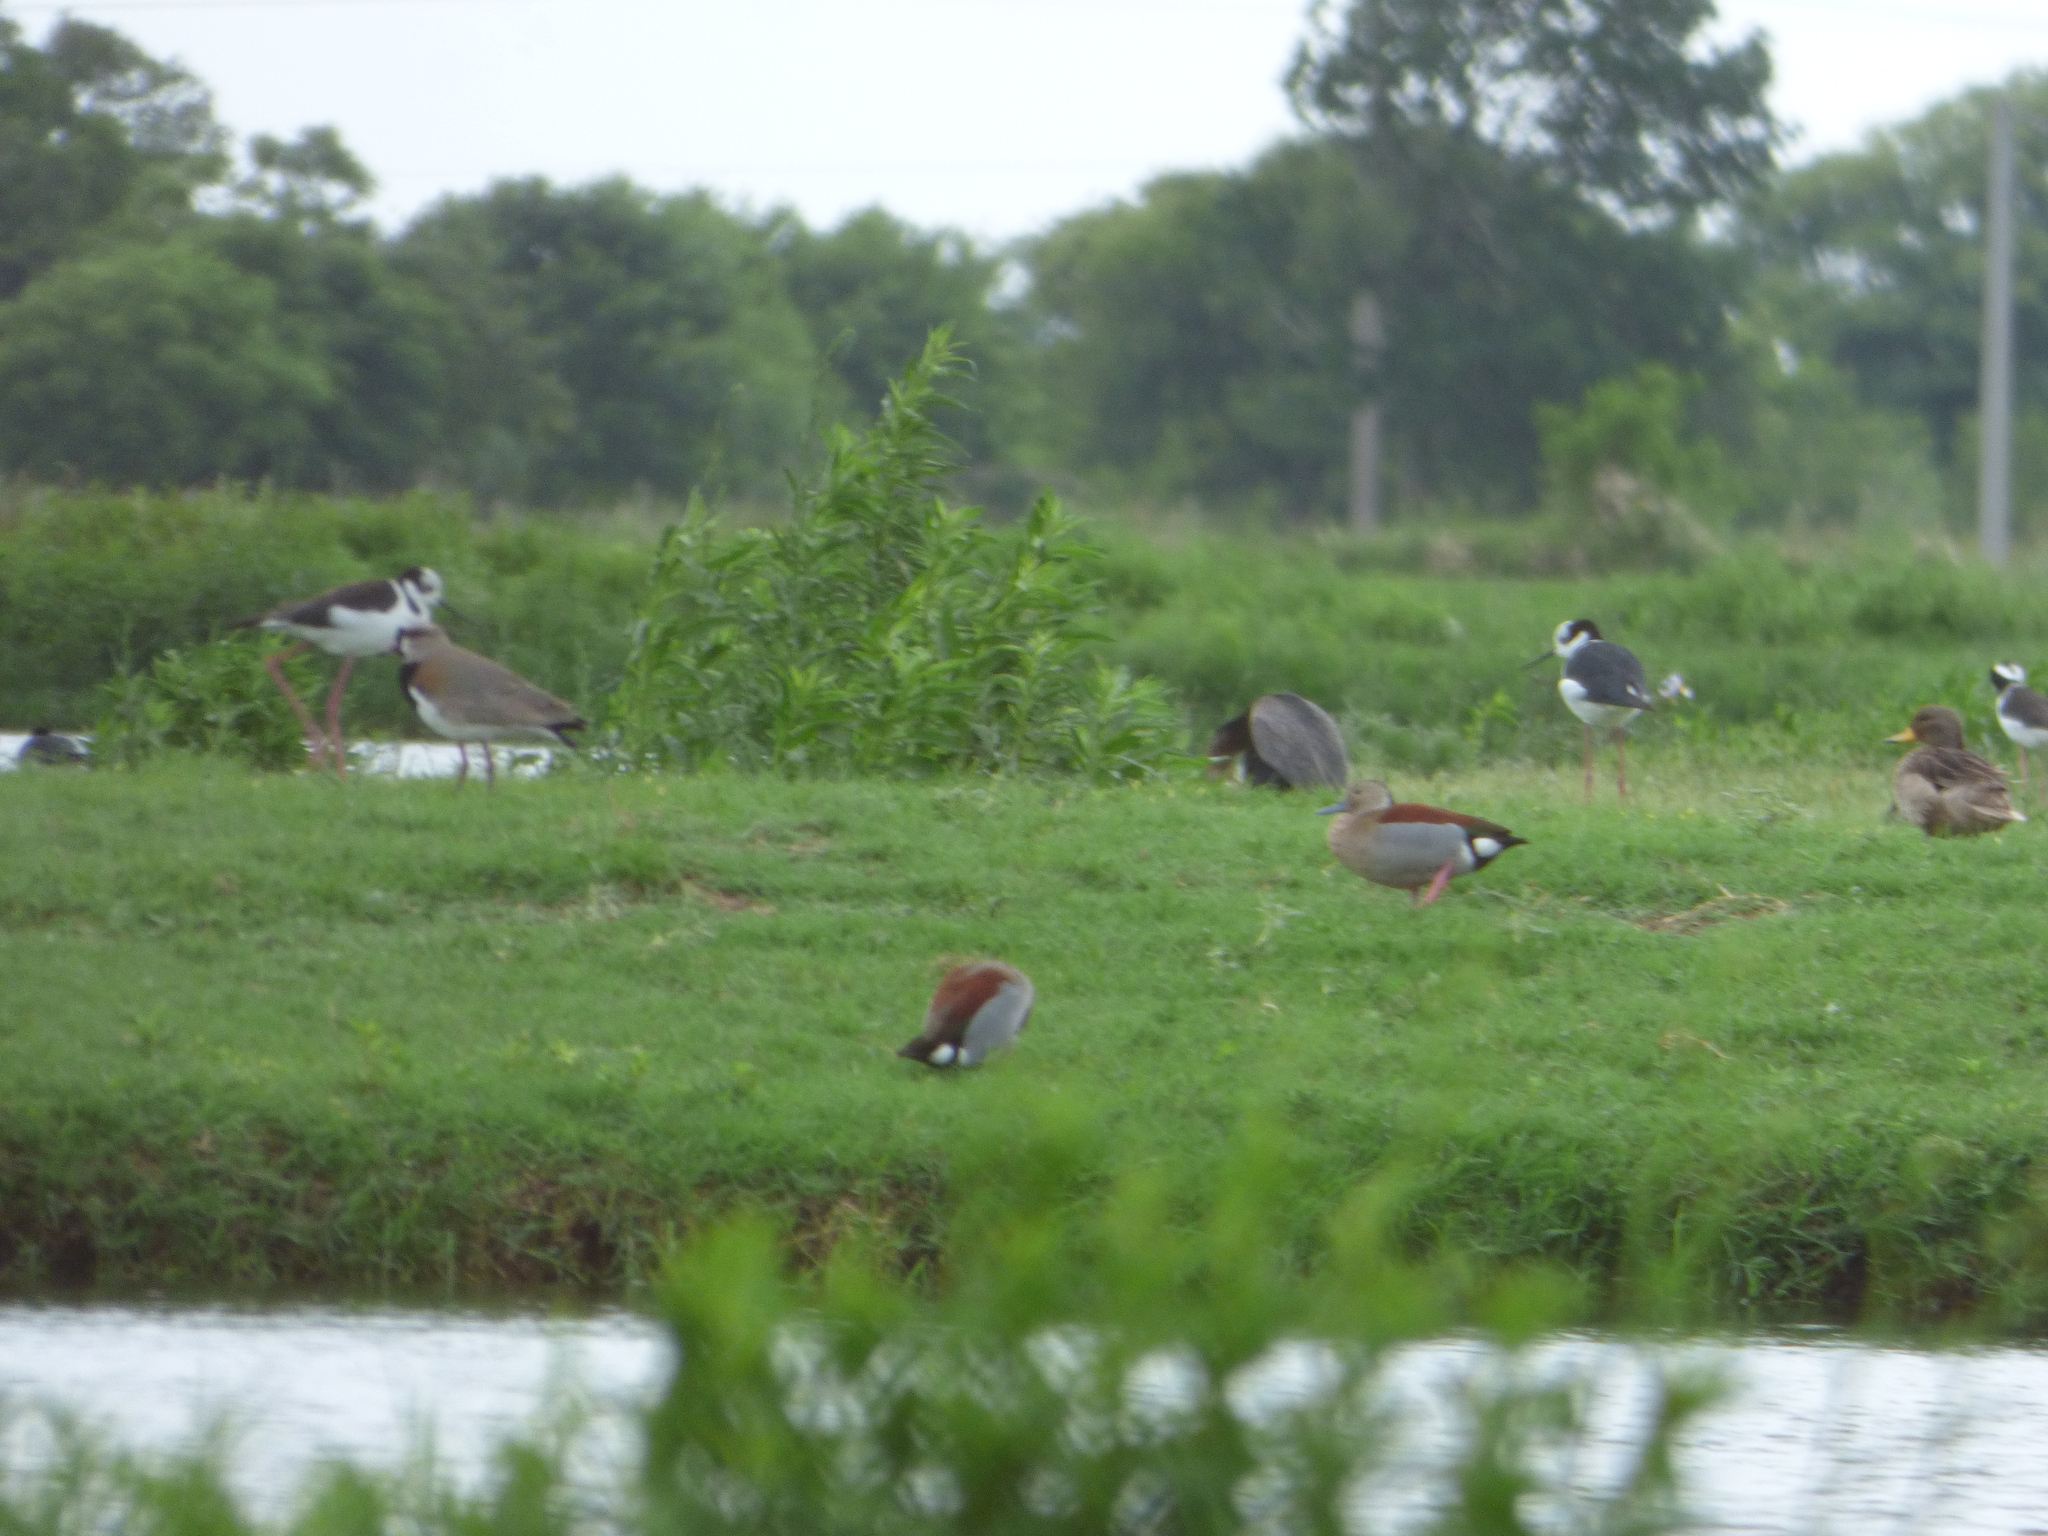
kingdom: Animalia
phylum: Chordata
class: Aves
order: Charadriiformes
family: Charadriidae
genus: Vanellus
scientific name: Vanellus chilensis
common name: Southern lapwing
